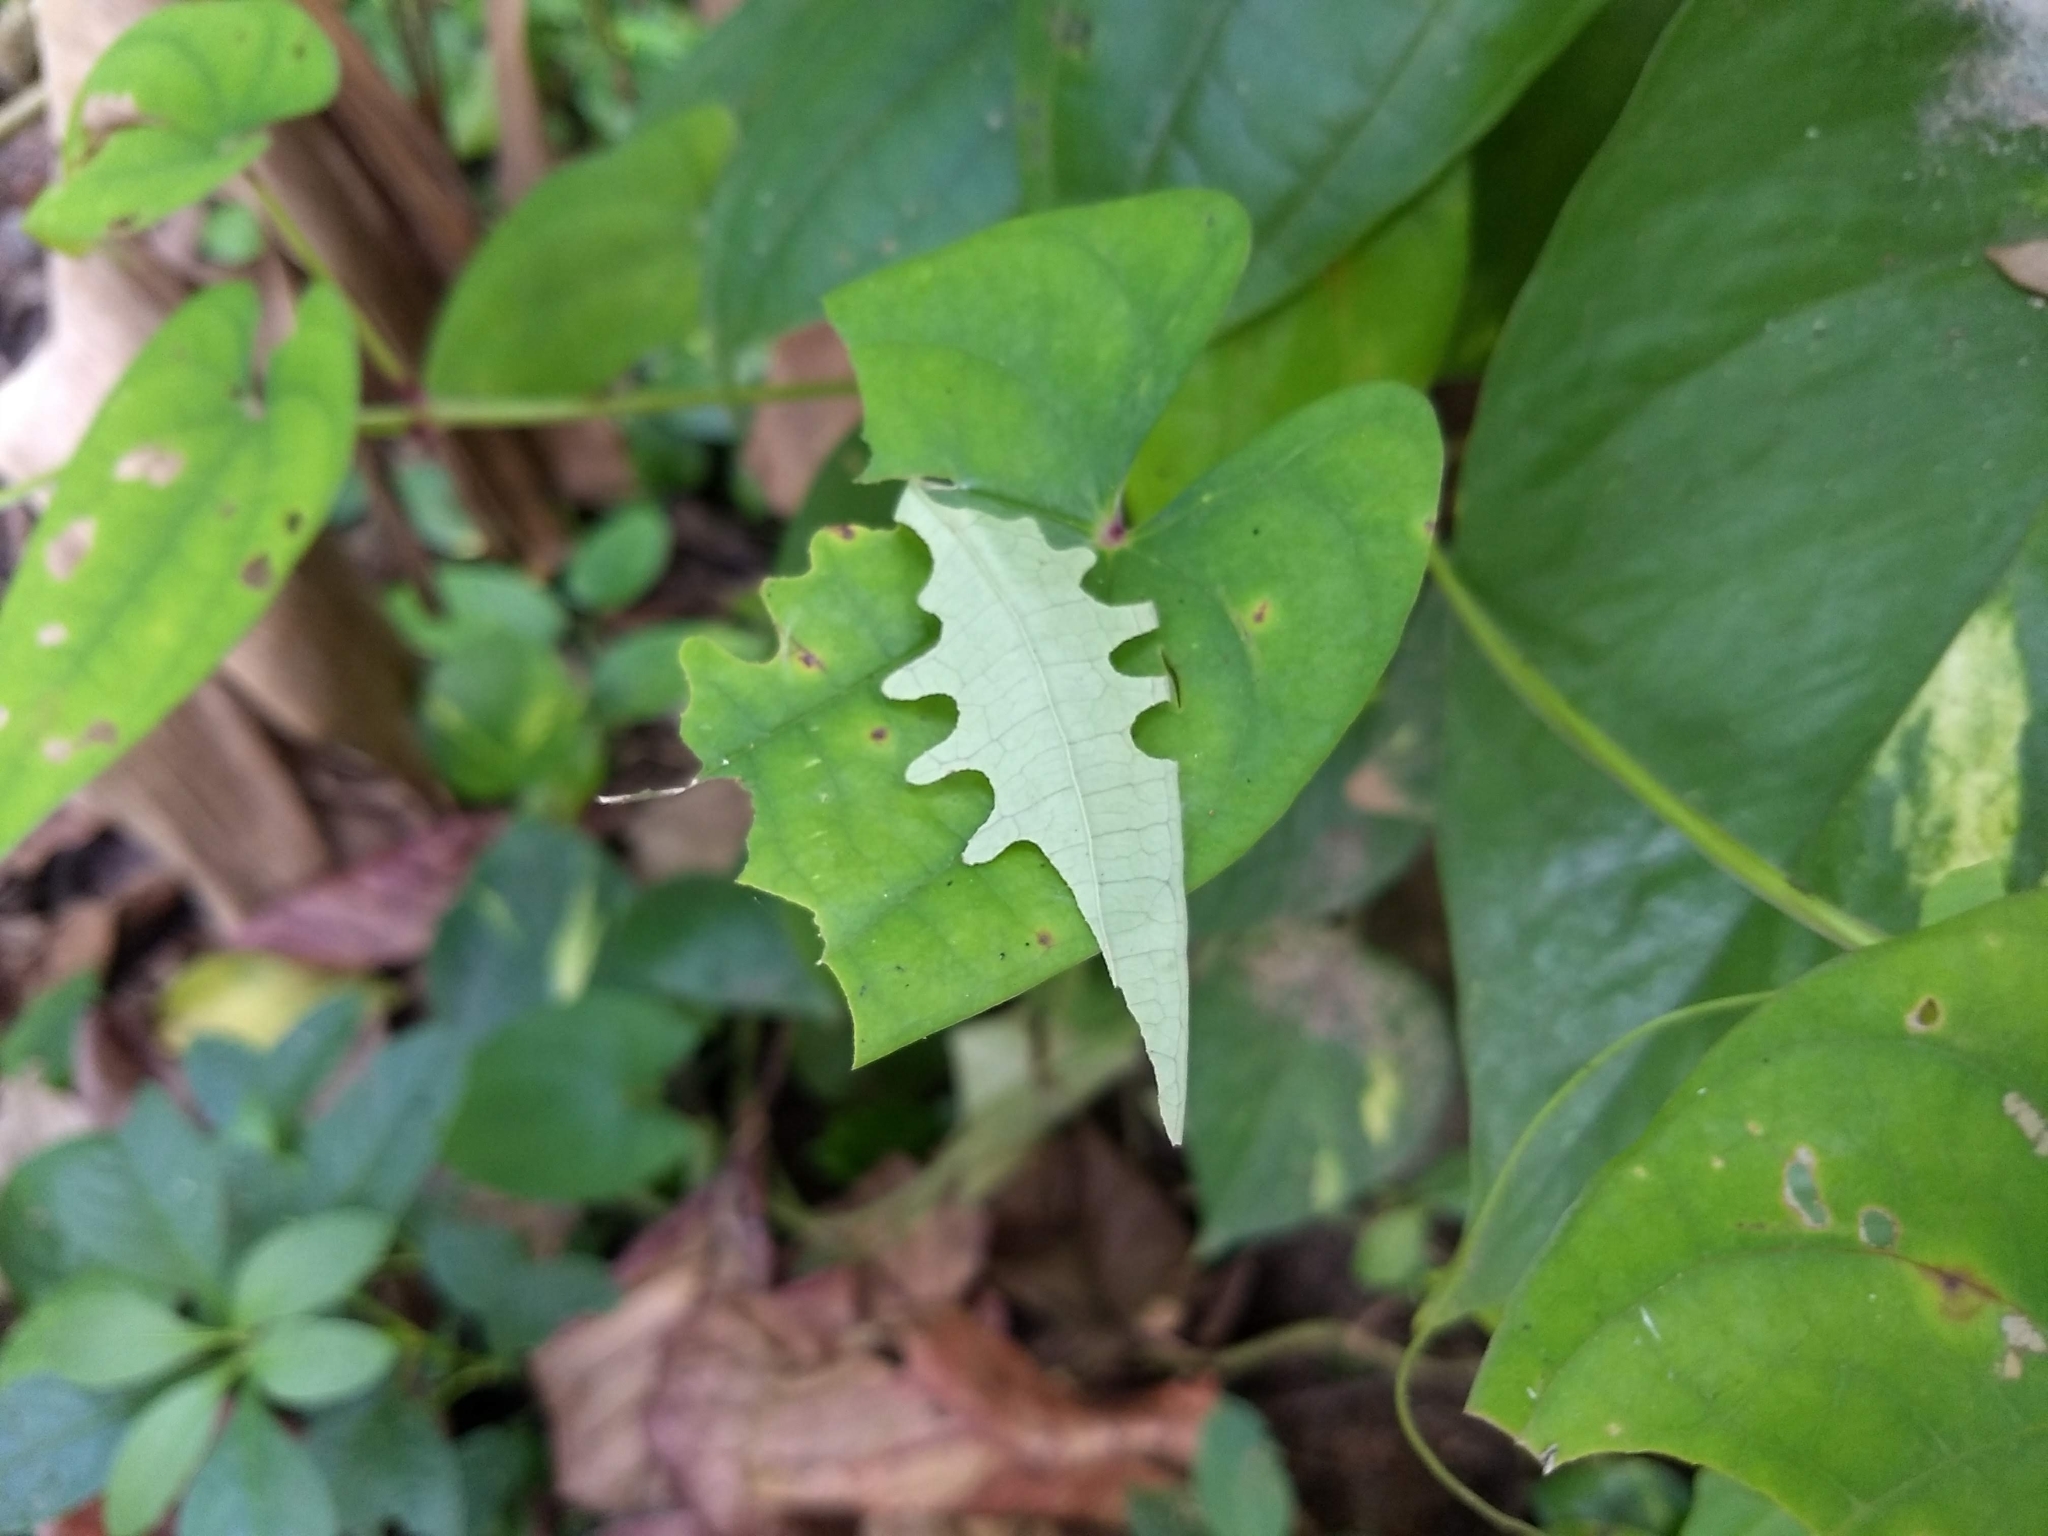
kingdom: Animalia
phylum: Arthropoda
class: Insecta
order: Lepidoptera
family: Hesperiidae
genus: Tagiades
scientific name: Tagiades litigiosa
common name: Water snow flat
